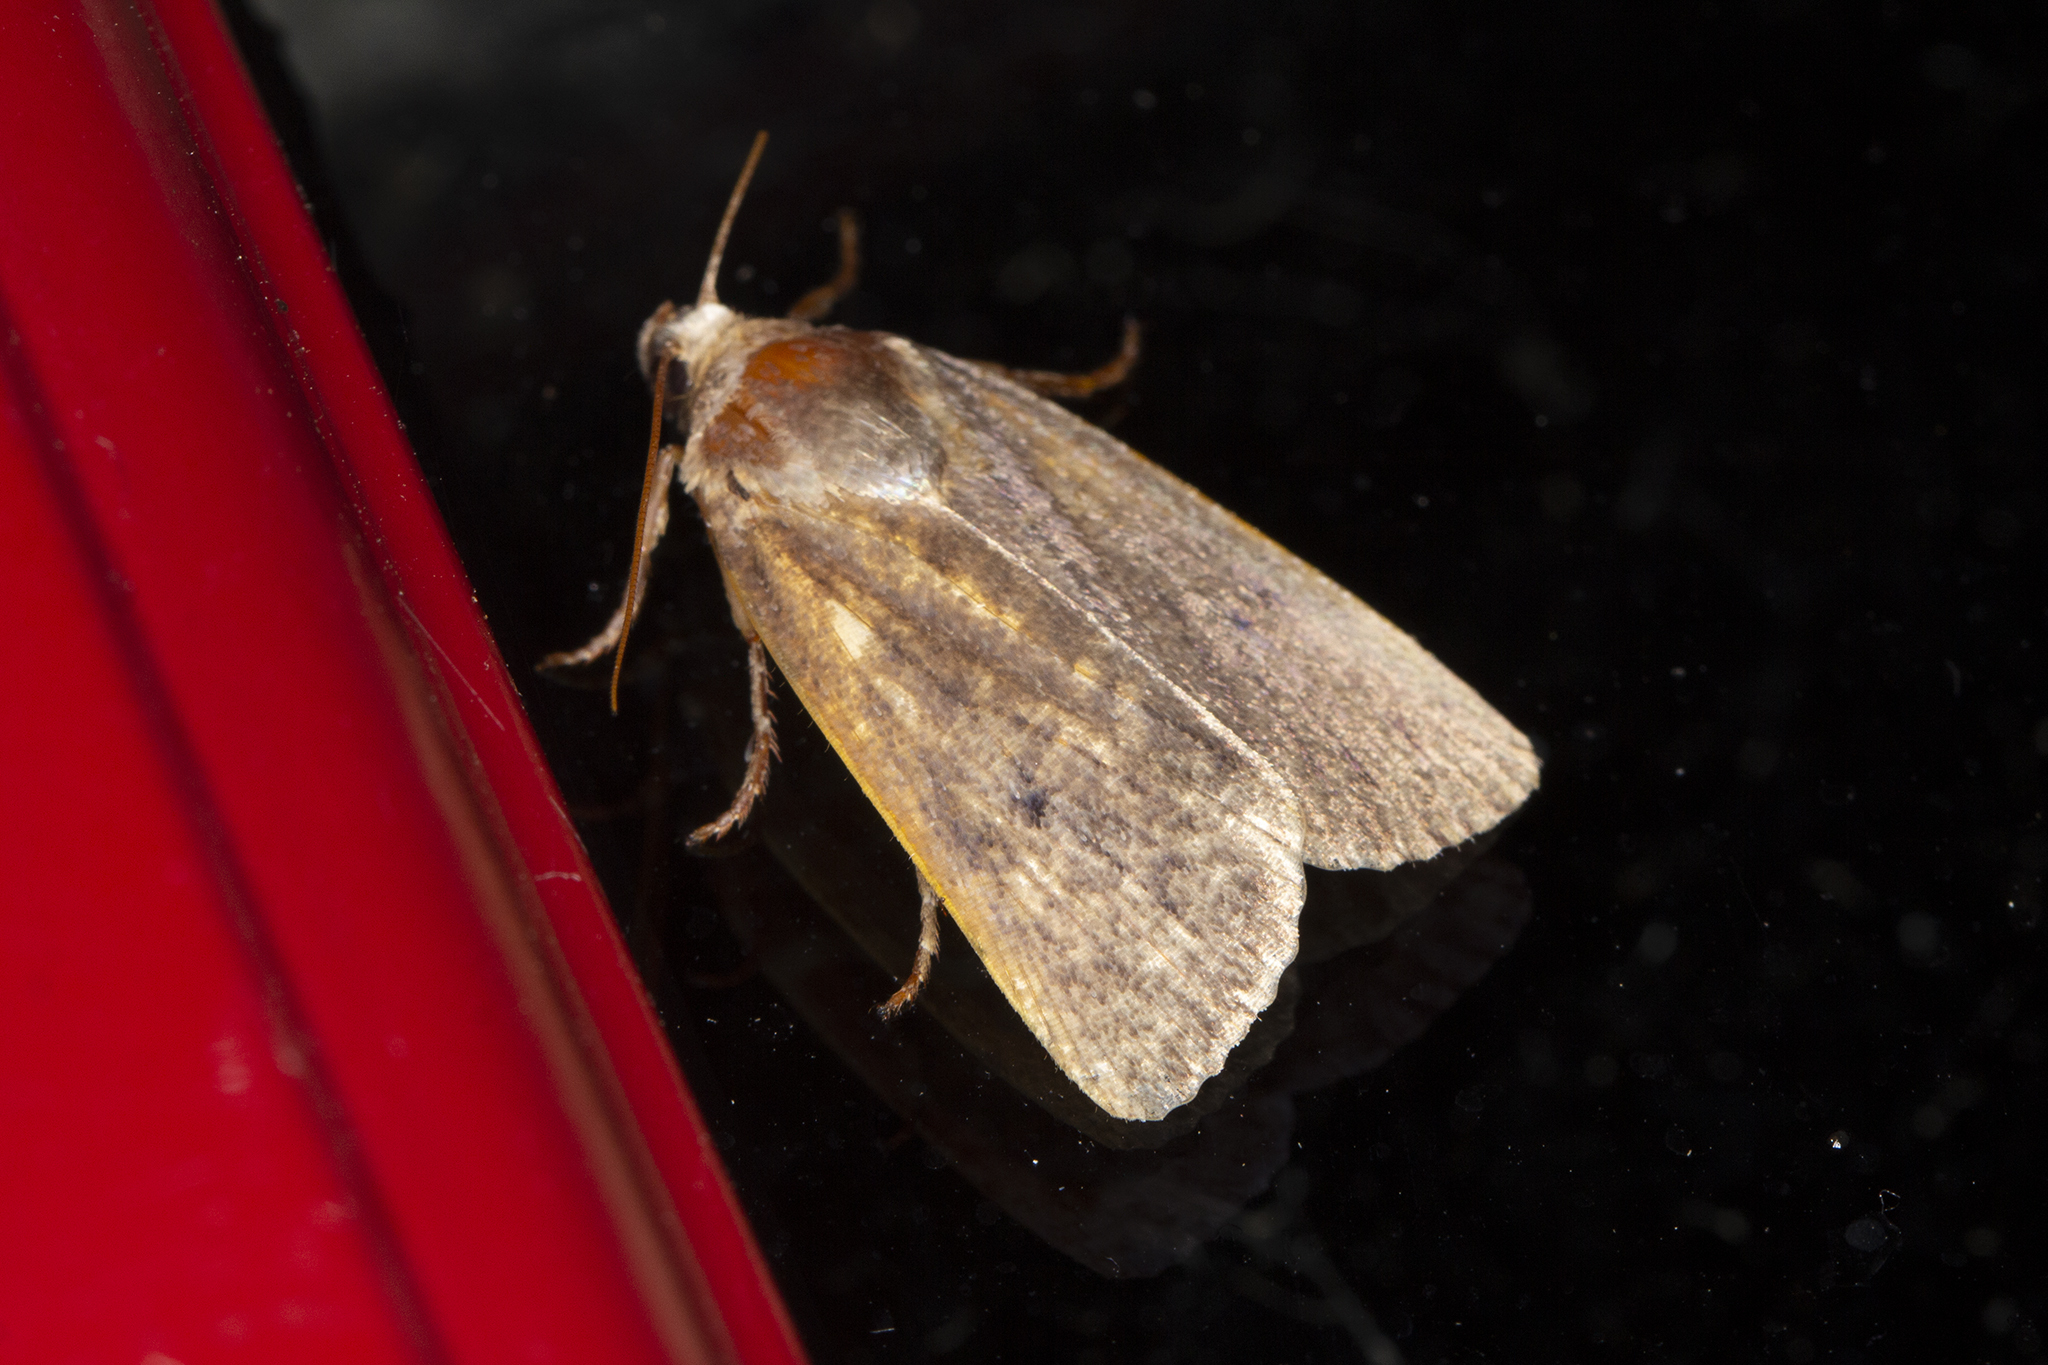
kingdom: Animalia
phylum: Arthropoda
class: Insecta
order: Lepidoptera
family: Noctuidae
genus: Amphipyra
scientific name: Amphipyra tragopoginis
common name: Mouse moth
